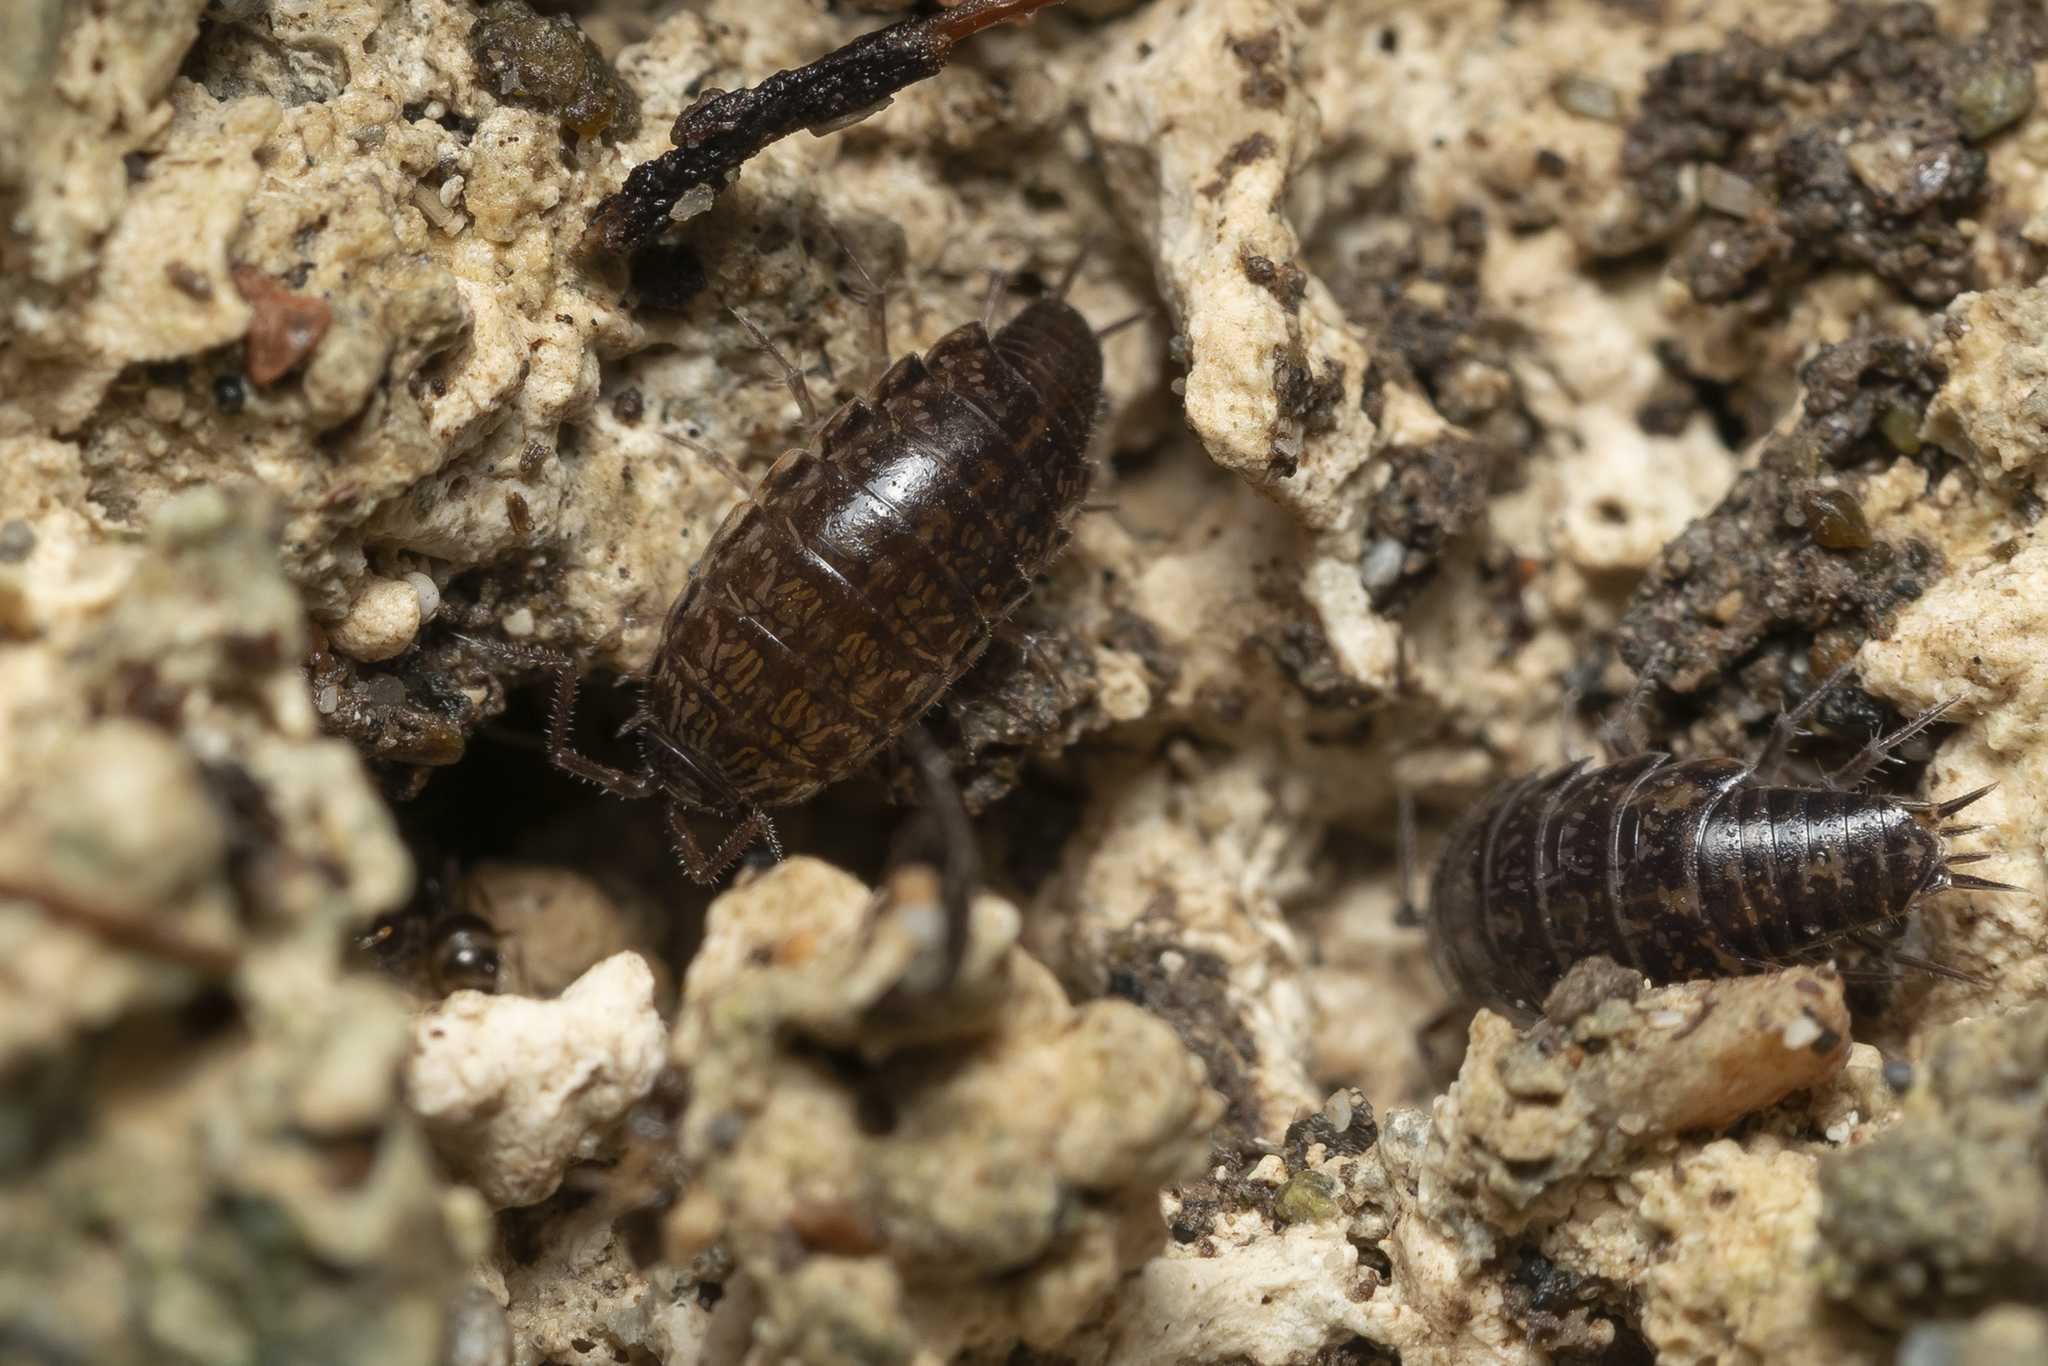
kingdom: Animalia
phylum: Arthropoda
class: Malacostraca
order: Isopoda
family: Philosciidae
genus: Chaetophiloscia
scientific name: Chaetophiloscia elongata
